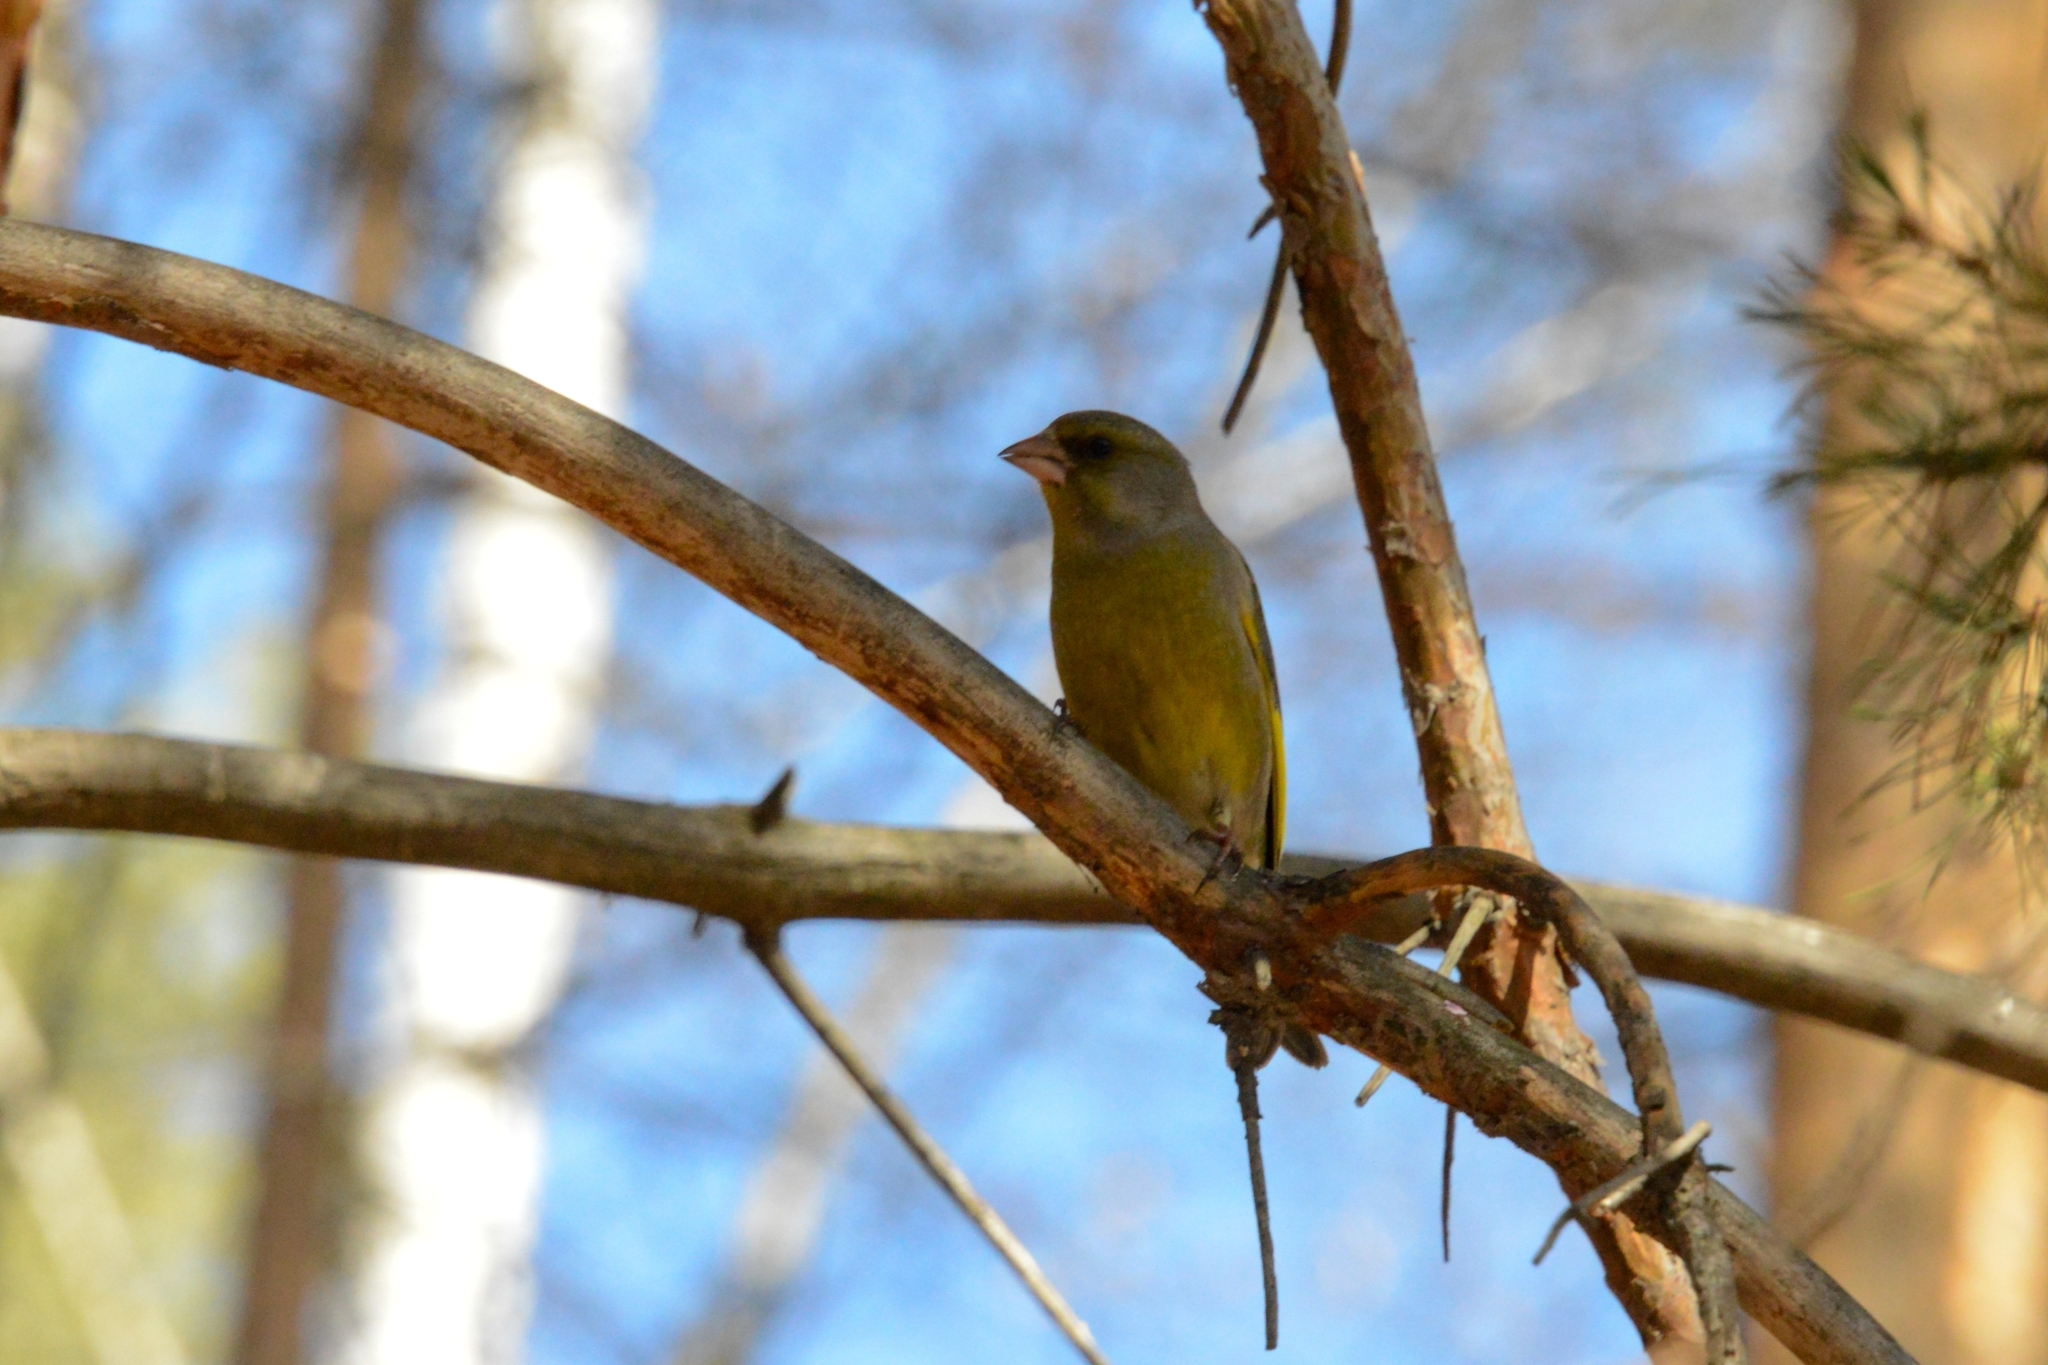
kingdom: Plantae
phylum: Tracheophyta
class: Liliopsida
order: Poales
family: Poaceae
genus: Chloris
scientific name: Chloris chloris
